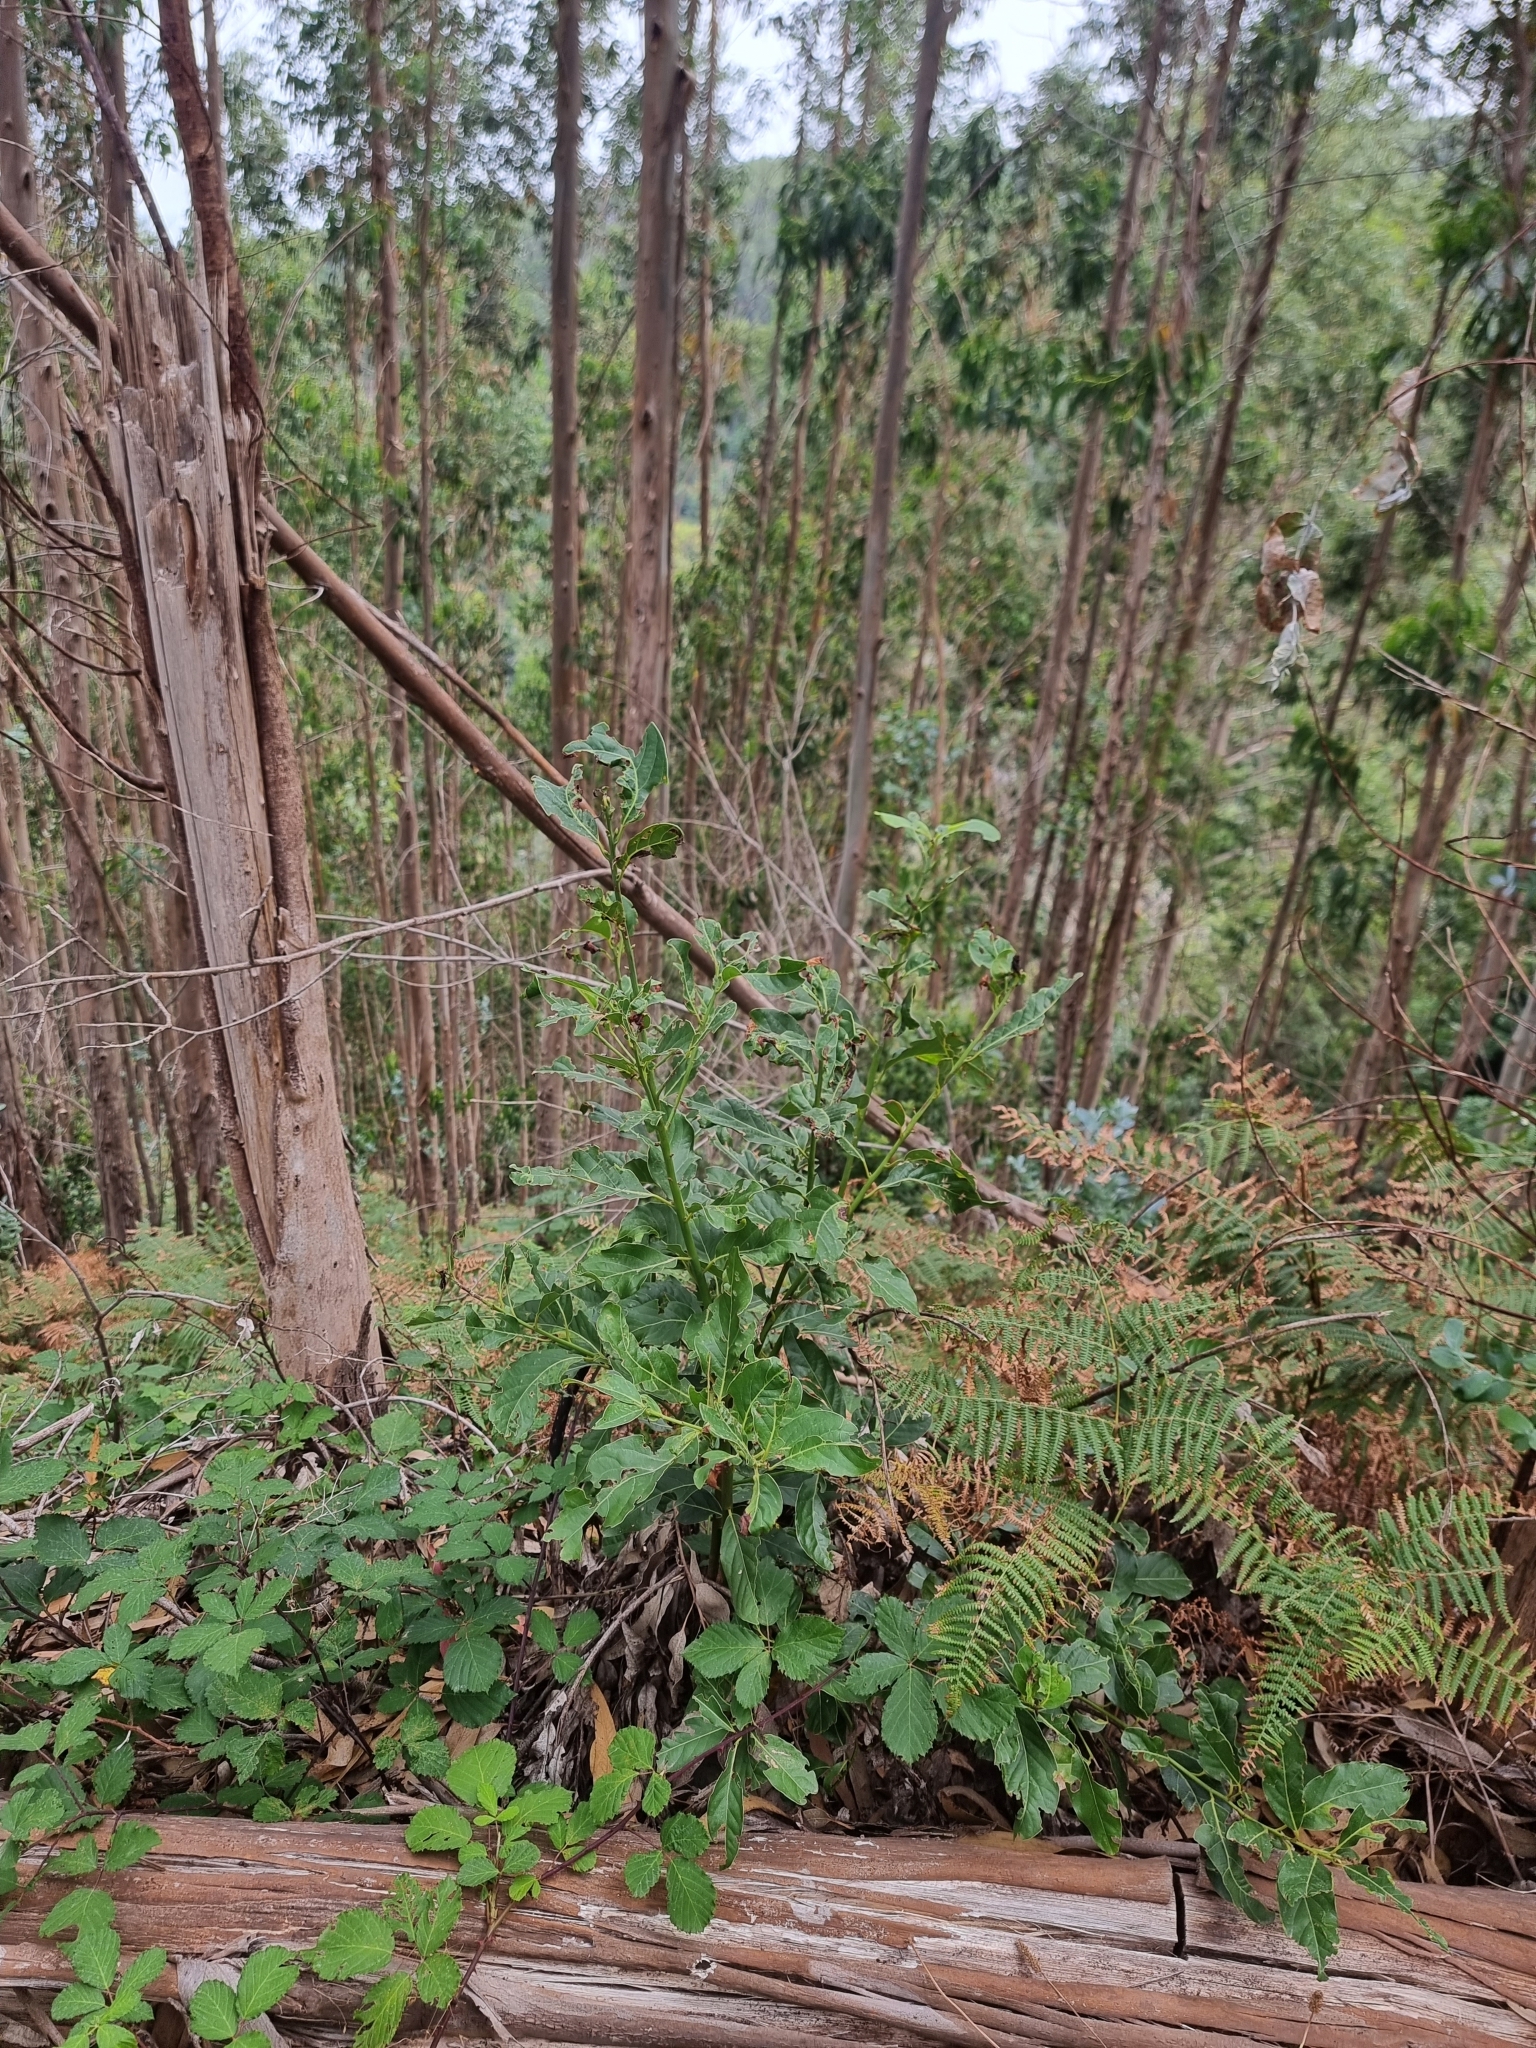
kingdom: Plantae
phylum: Tracheophyta
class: Magnoliopsida
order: Laurales
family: Lauraceae
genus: Laurus
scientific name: Laurus novocanariensis
